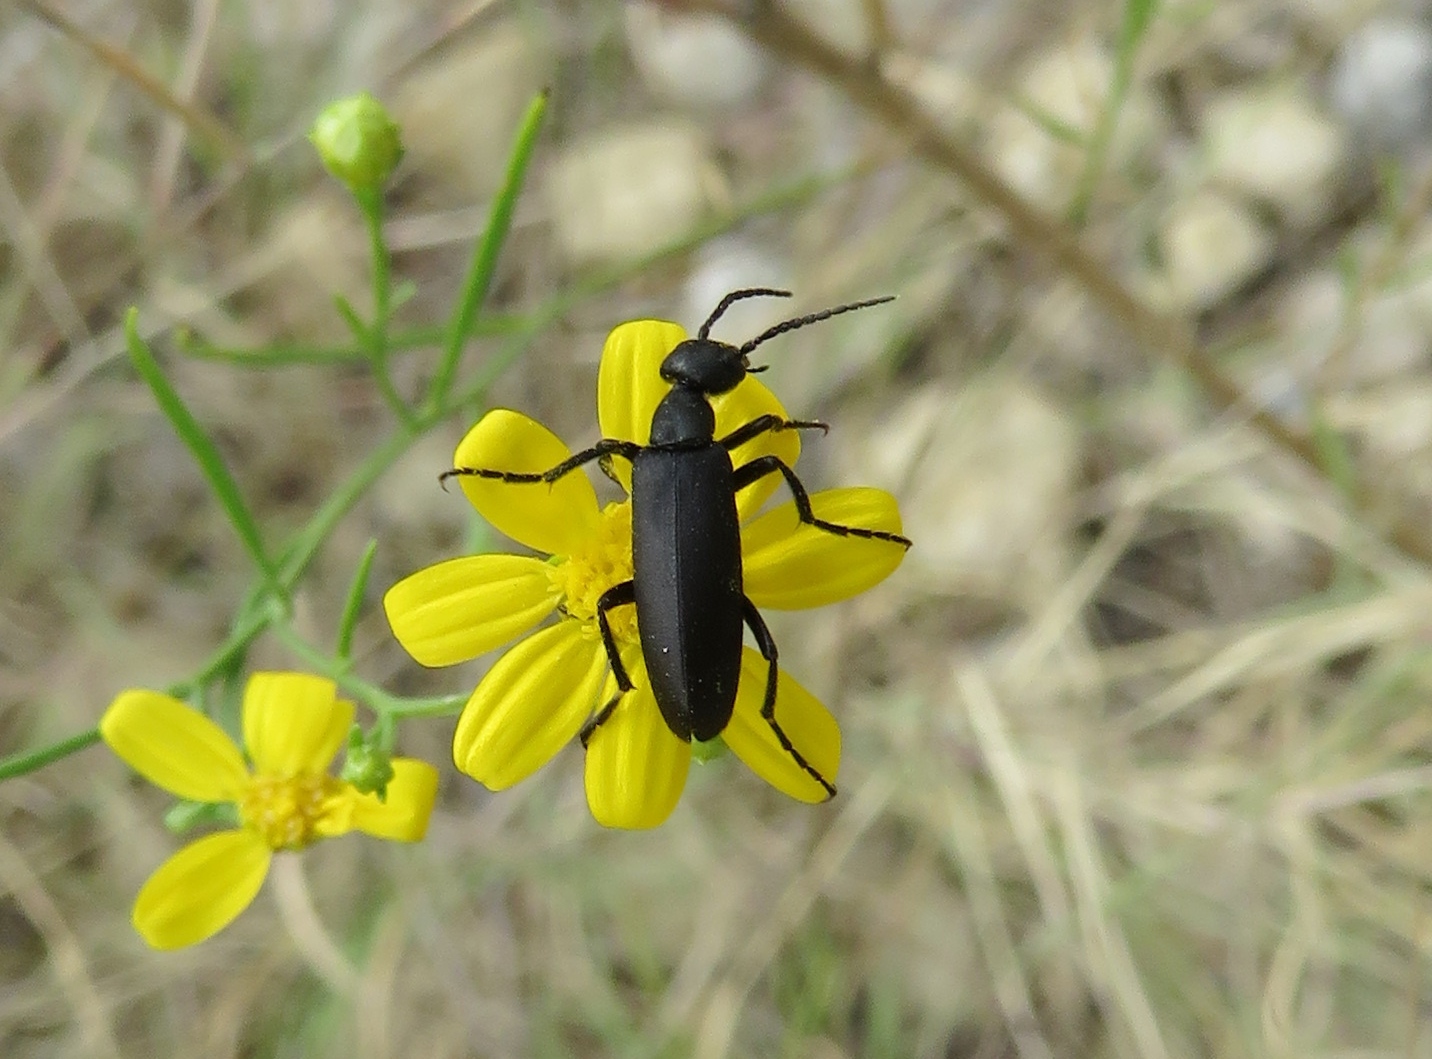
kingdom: Animalia
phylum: Arthropoda
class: Insecta
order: Coleoptera
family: Meloidae
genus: Epicauta
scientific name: Epicauta pensylvanica
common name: Black blister beetle
